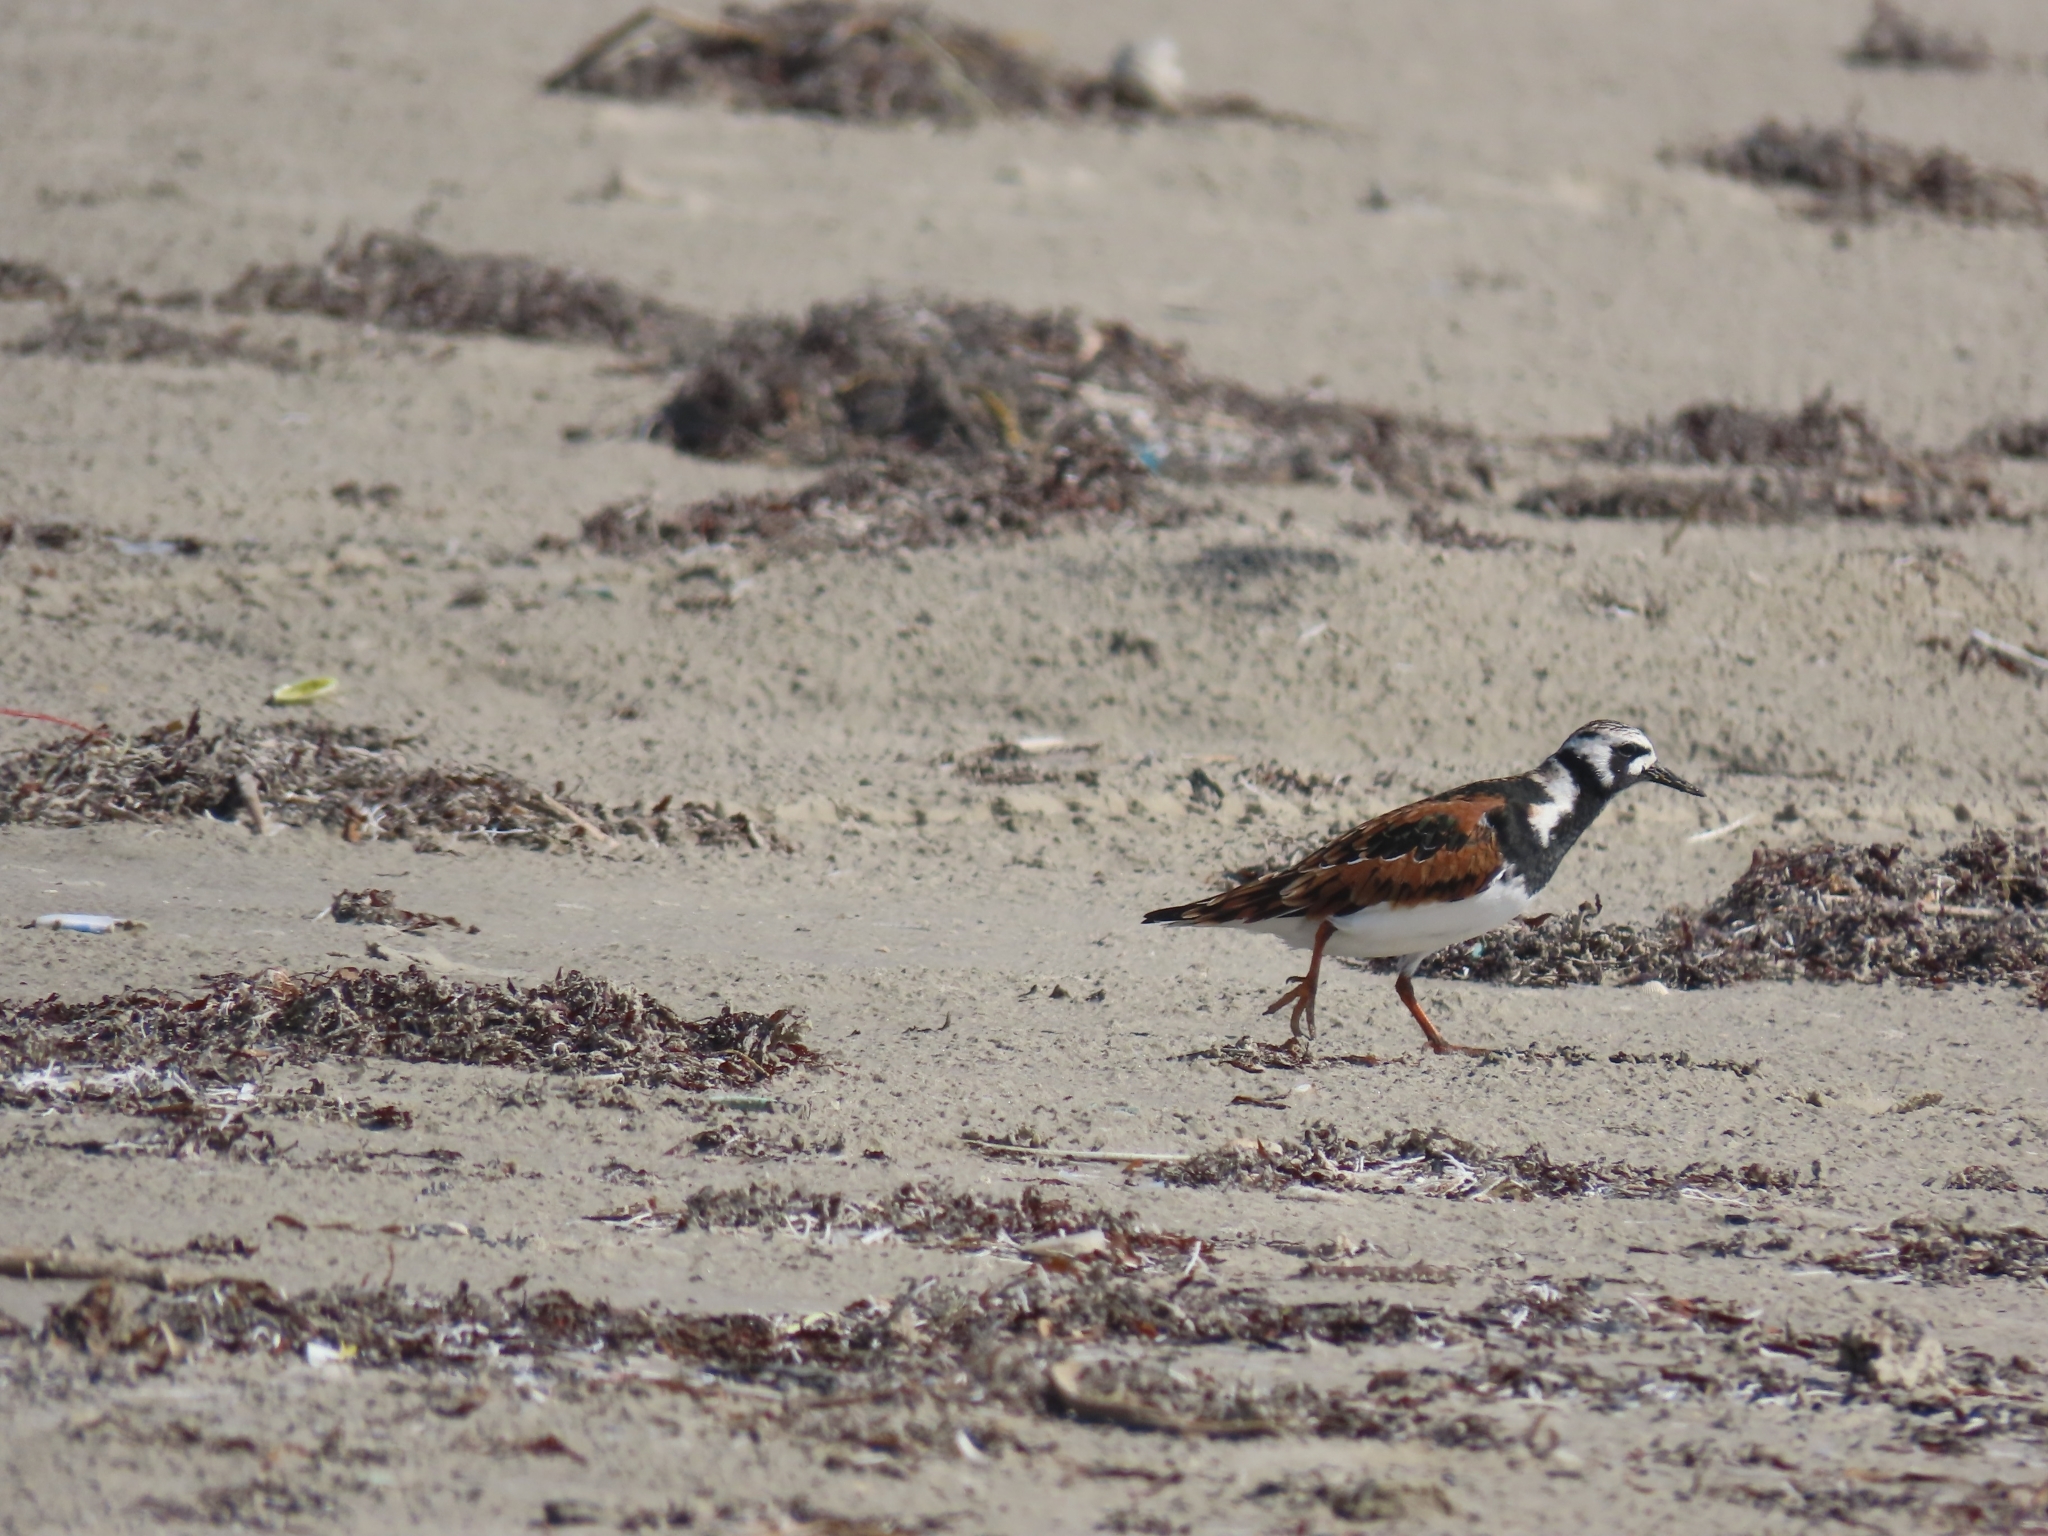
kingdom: Animalia
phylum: Chordata
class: Aves
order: Charadriiformes
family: Scolopacidae
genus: Arenaria
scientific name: Arenaria interpres
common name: Ruddy turnstone
